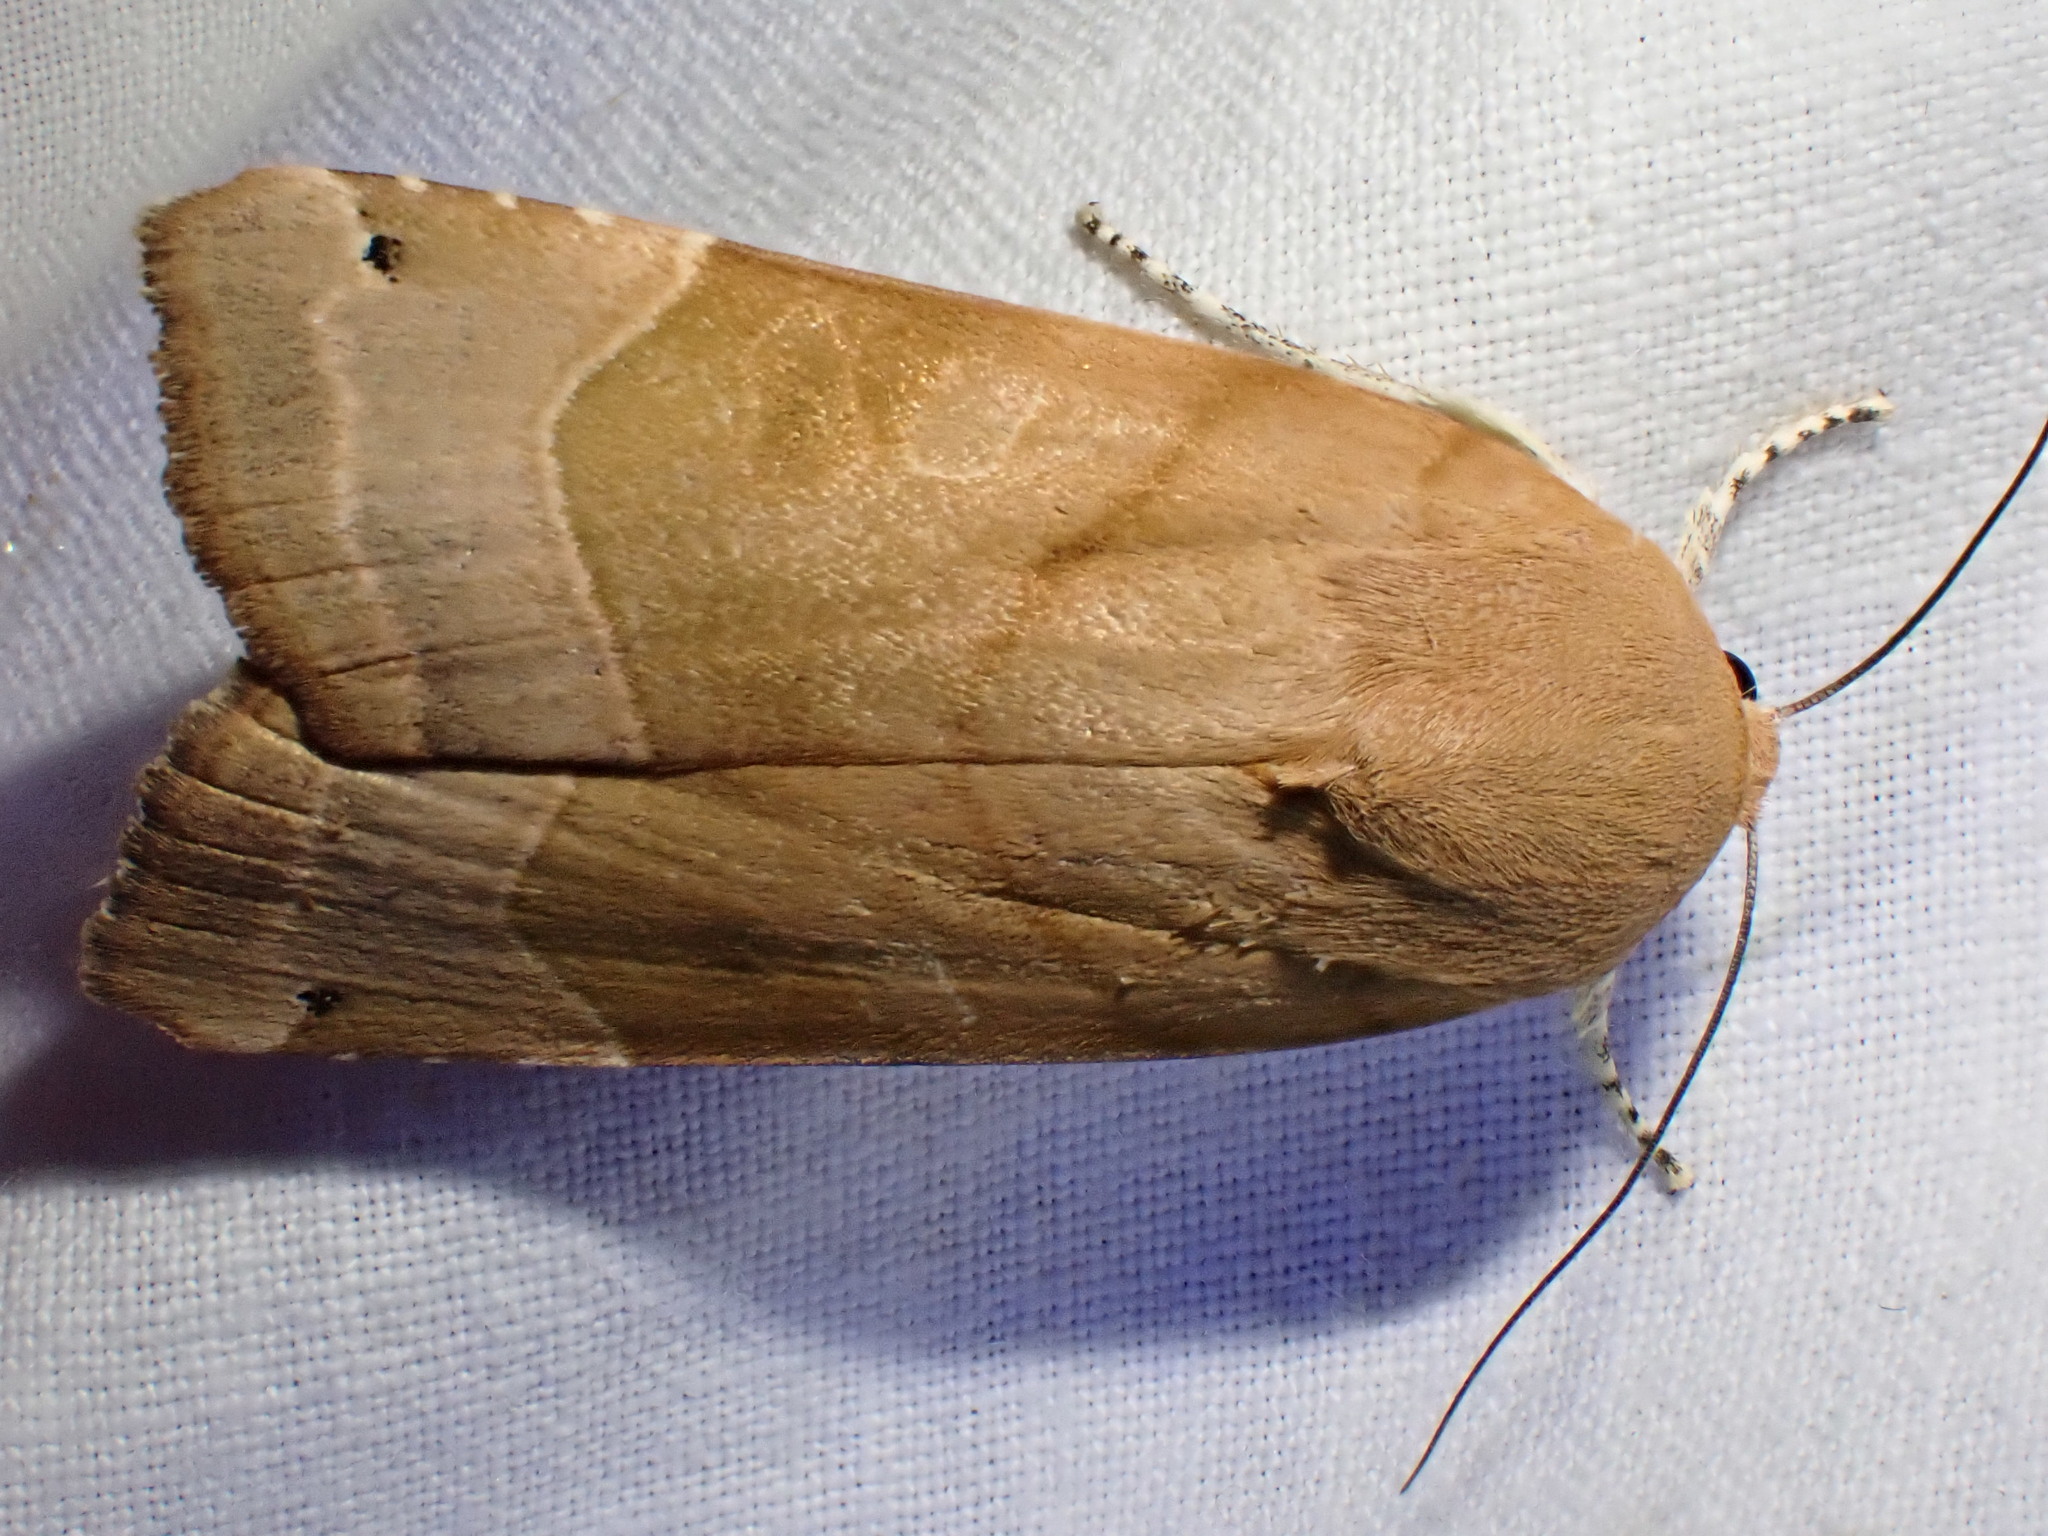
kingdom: Animalia
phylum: Arthropoda
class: Insecta
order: Lepidoptera
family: Noctuidae
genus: Noctua
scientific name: Noctua fimbriata
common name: Broad-bordered yellow underwing
